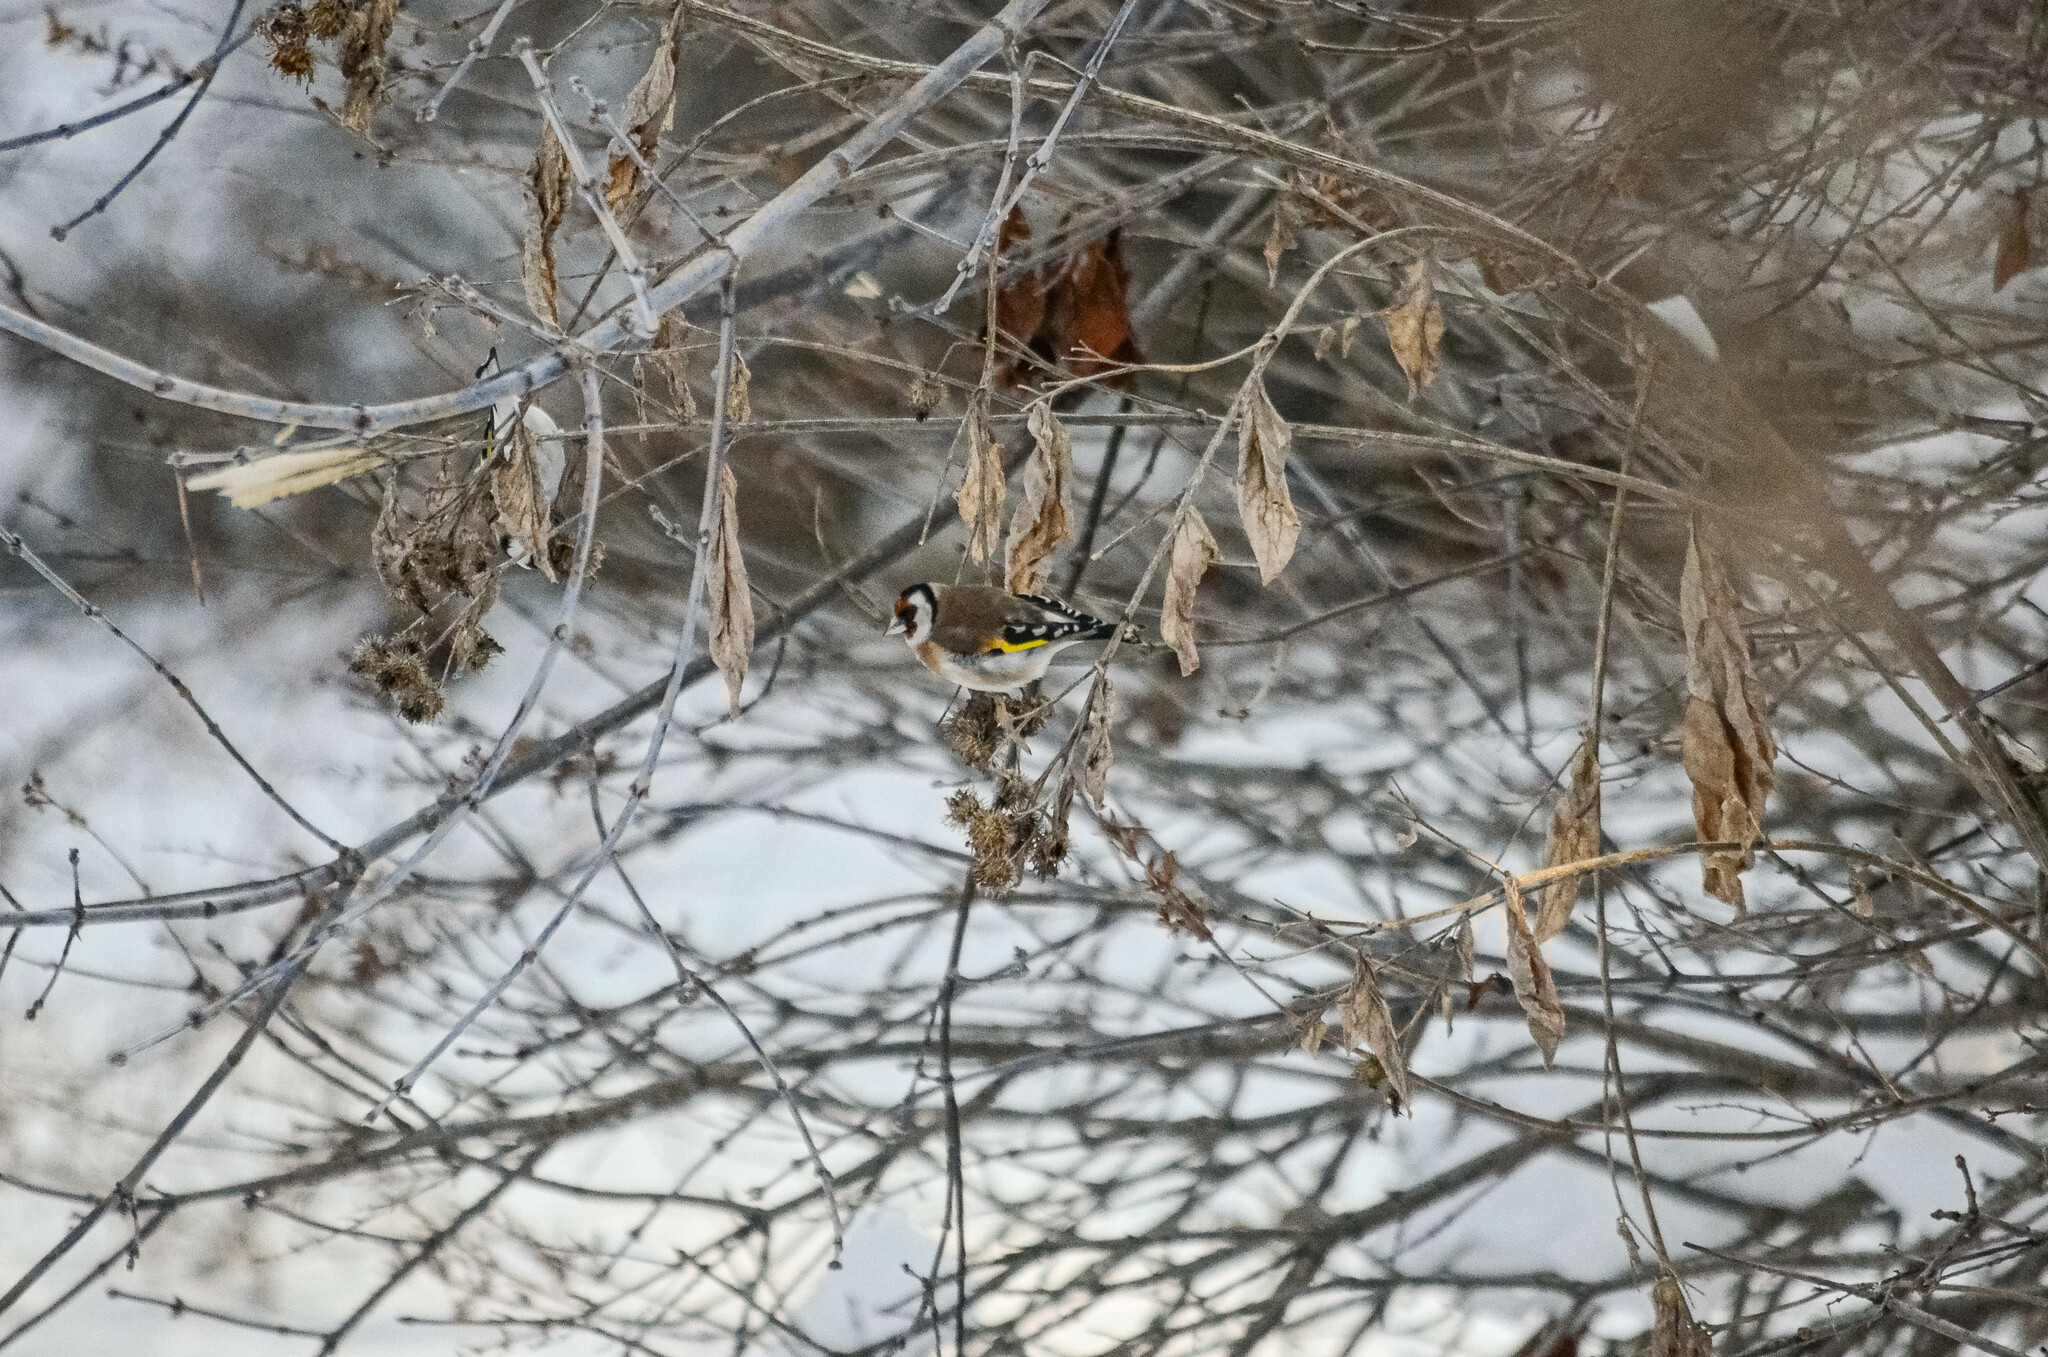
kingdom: Animalia
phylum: Chordata
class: Aves
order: Passeriformes
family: Fringillidae
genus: Carduelis
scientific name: Carduelis carduelis
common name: European goldfinch
